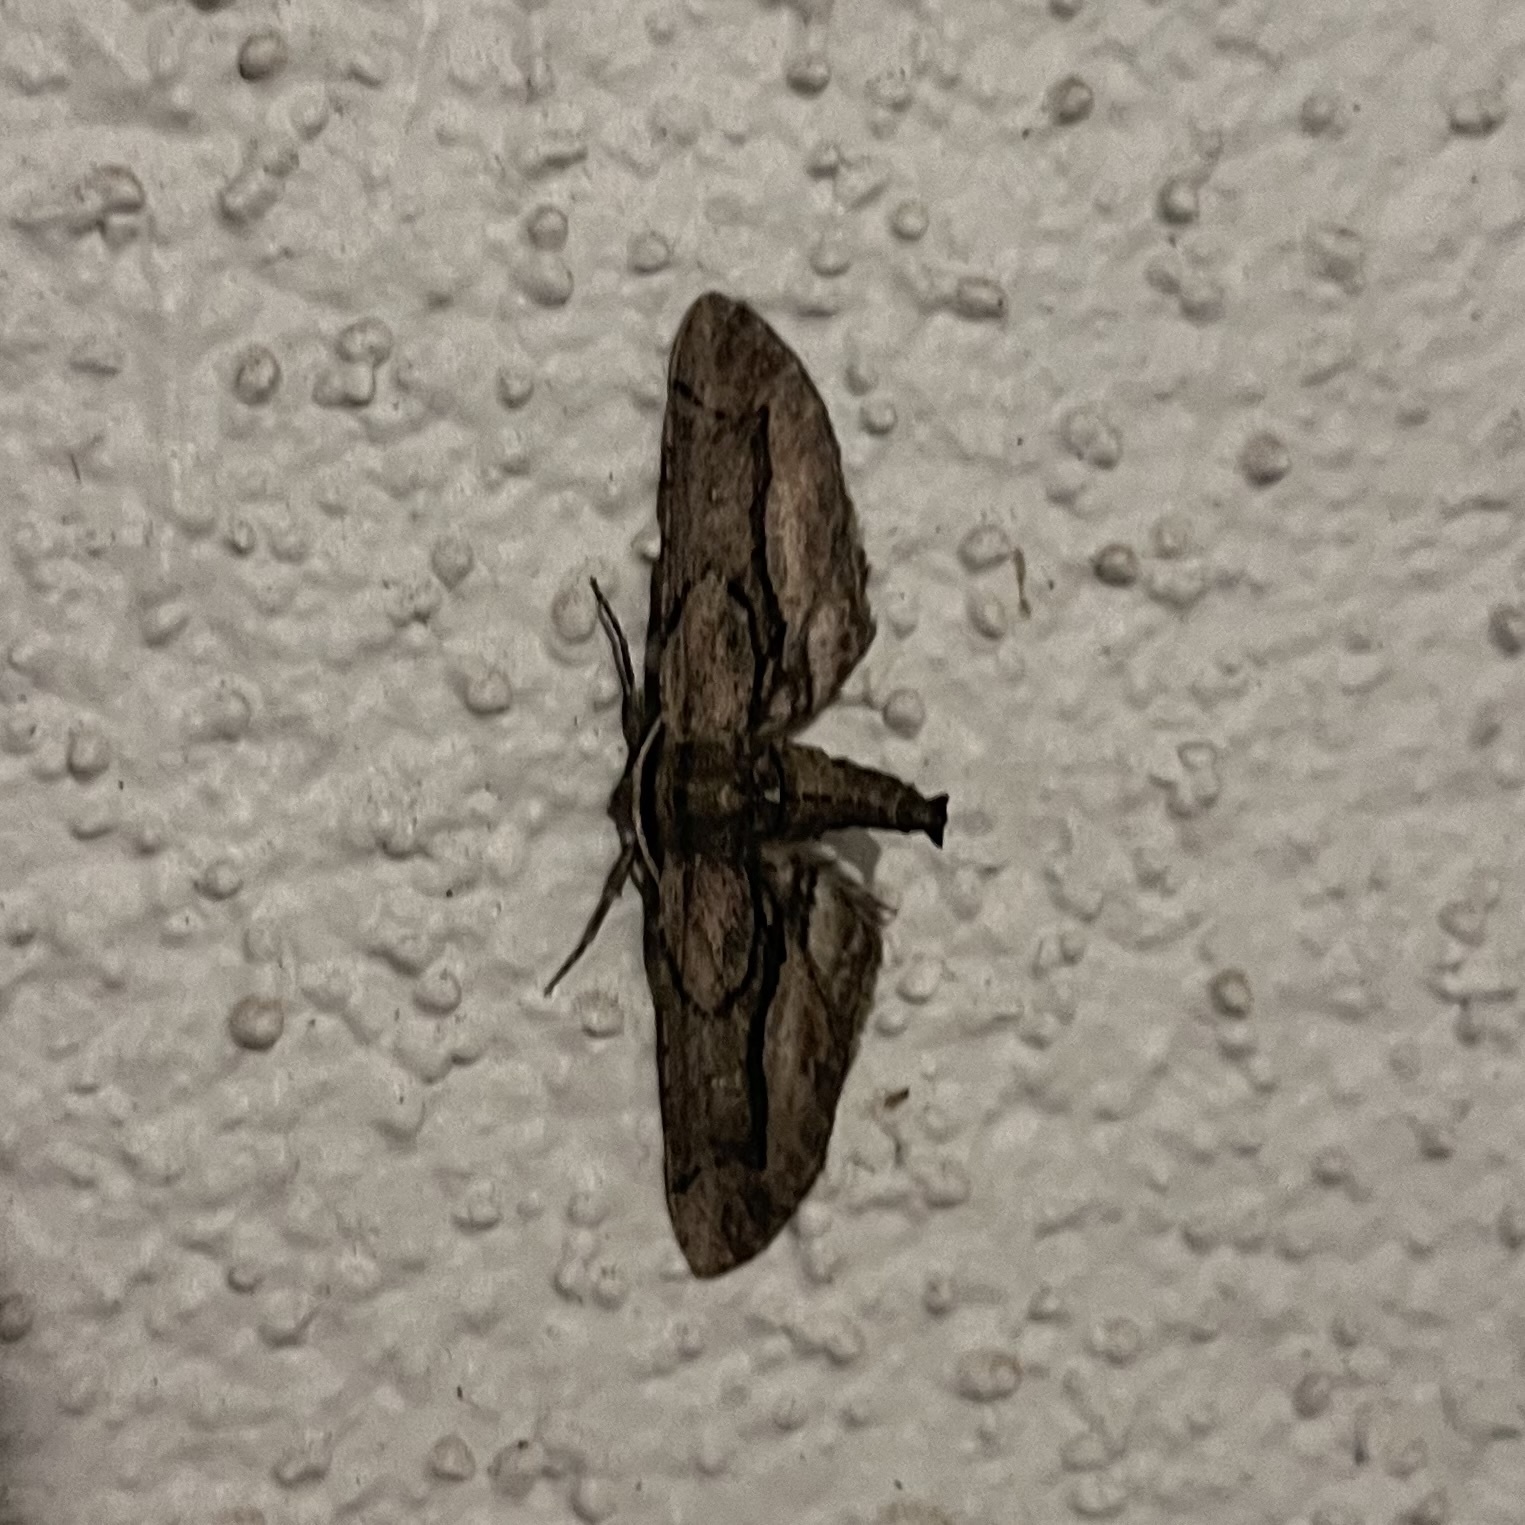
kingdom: Animalia
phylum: Arthropoda
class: Insecta
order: Lepidoptera
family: Geometridae
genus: Holochroa
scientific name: Holochroa dissociarius
